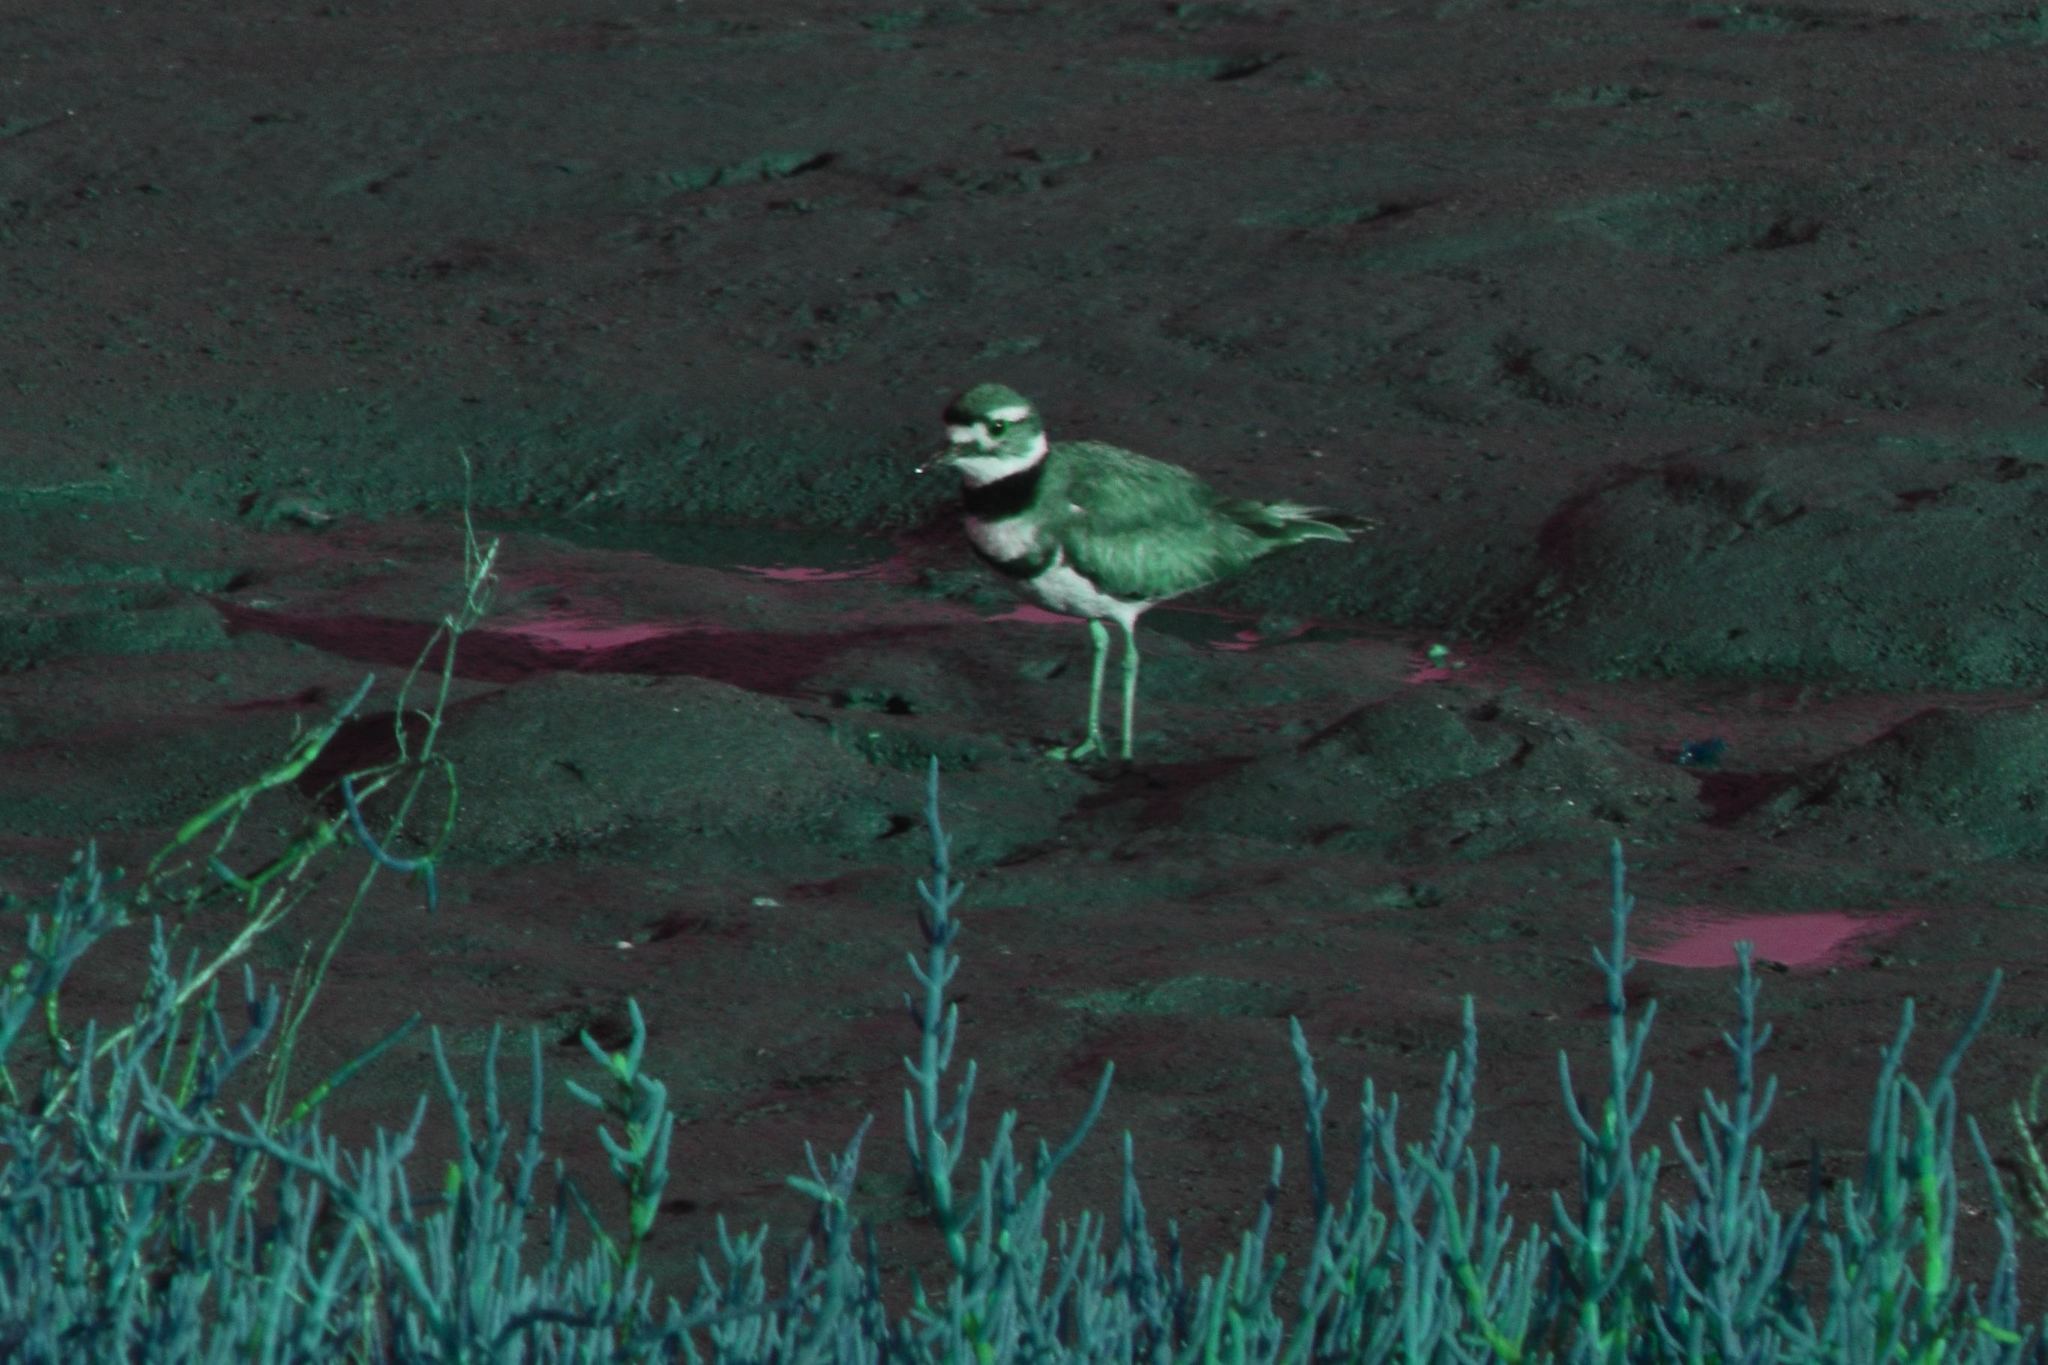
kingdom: Animalia
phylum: Chordata
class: Aves
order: Charadriiformes
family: Charadriidae
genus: Charadrius
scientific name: Charadrius vociferus
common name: Killdeer
